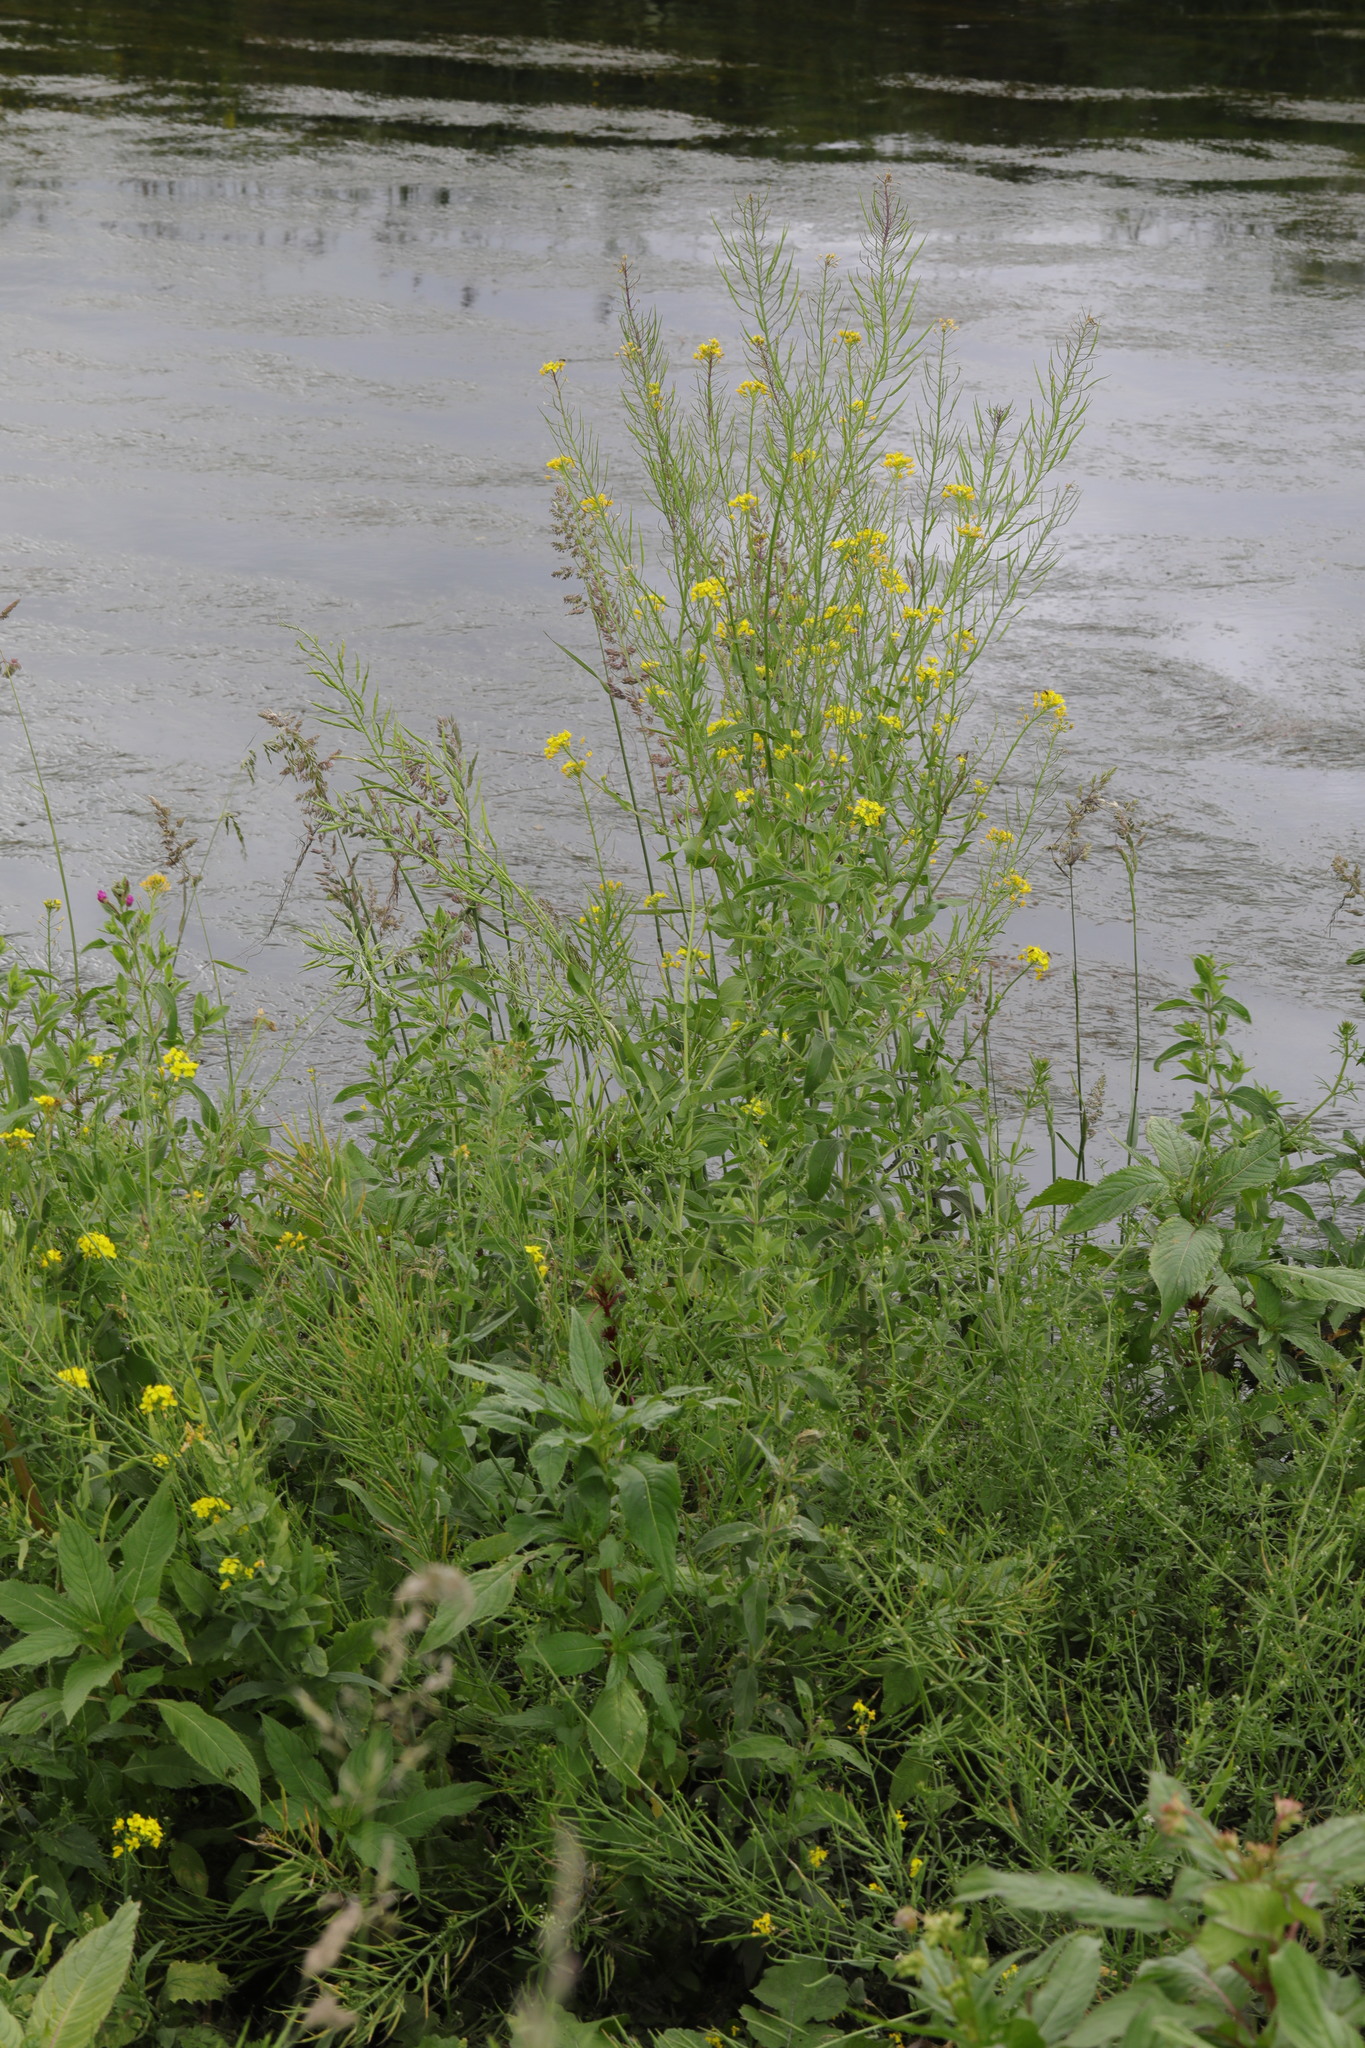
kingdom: Plantae
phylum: Tracheophyta
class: Magnoliopsida
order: Brassicales
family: Brassicaceae
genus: Brassica
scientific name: Brassica rapa
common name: Field mustard
